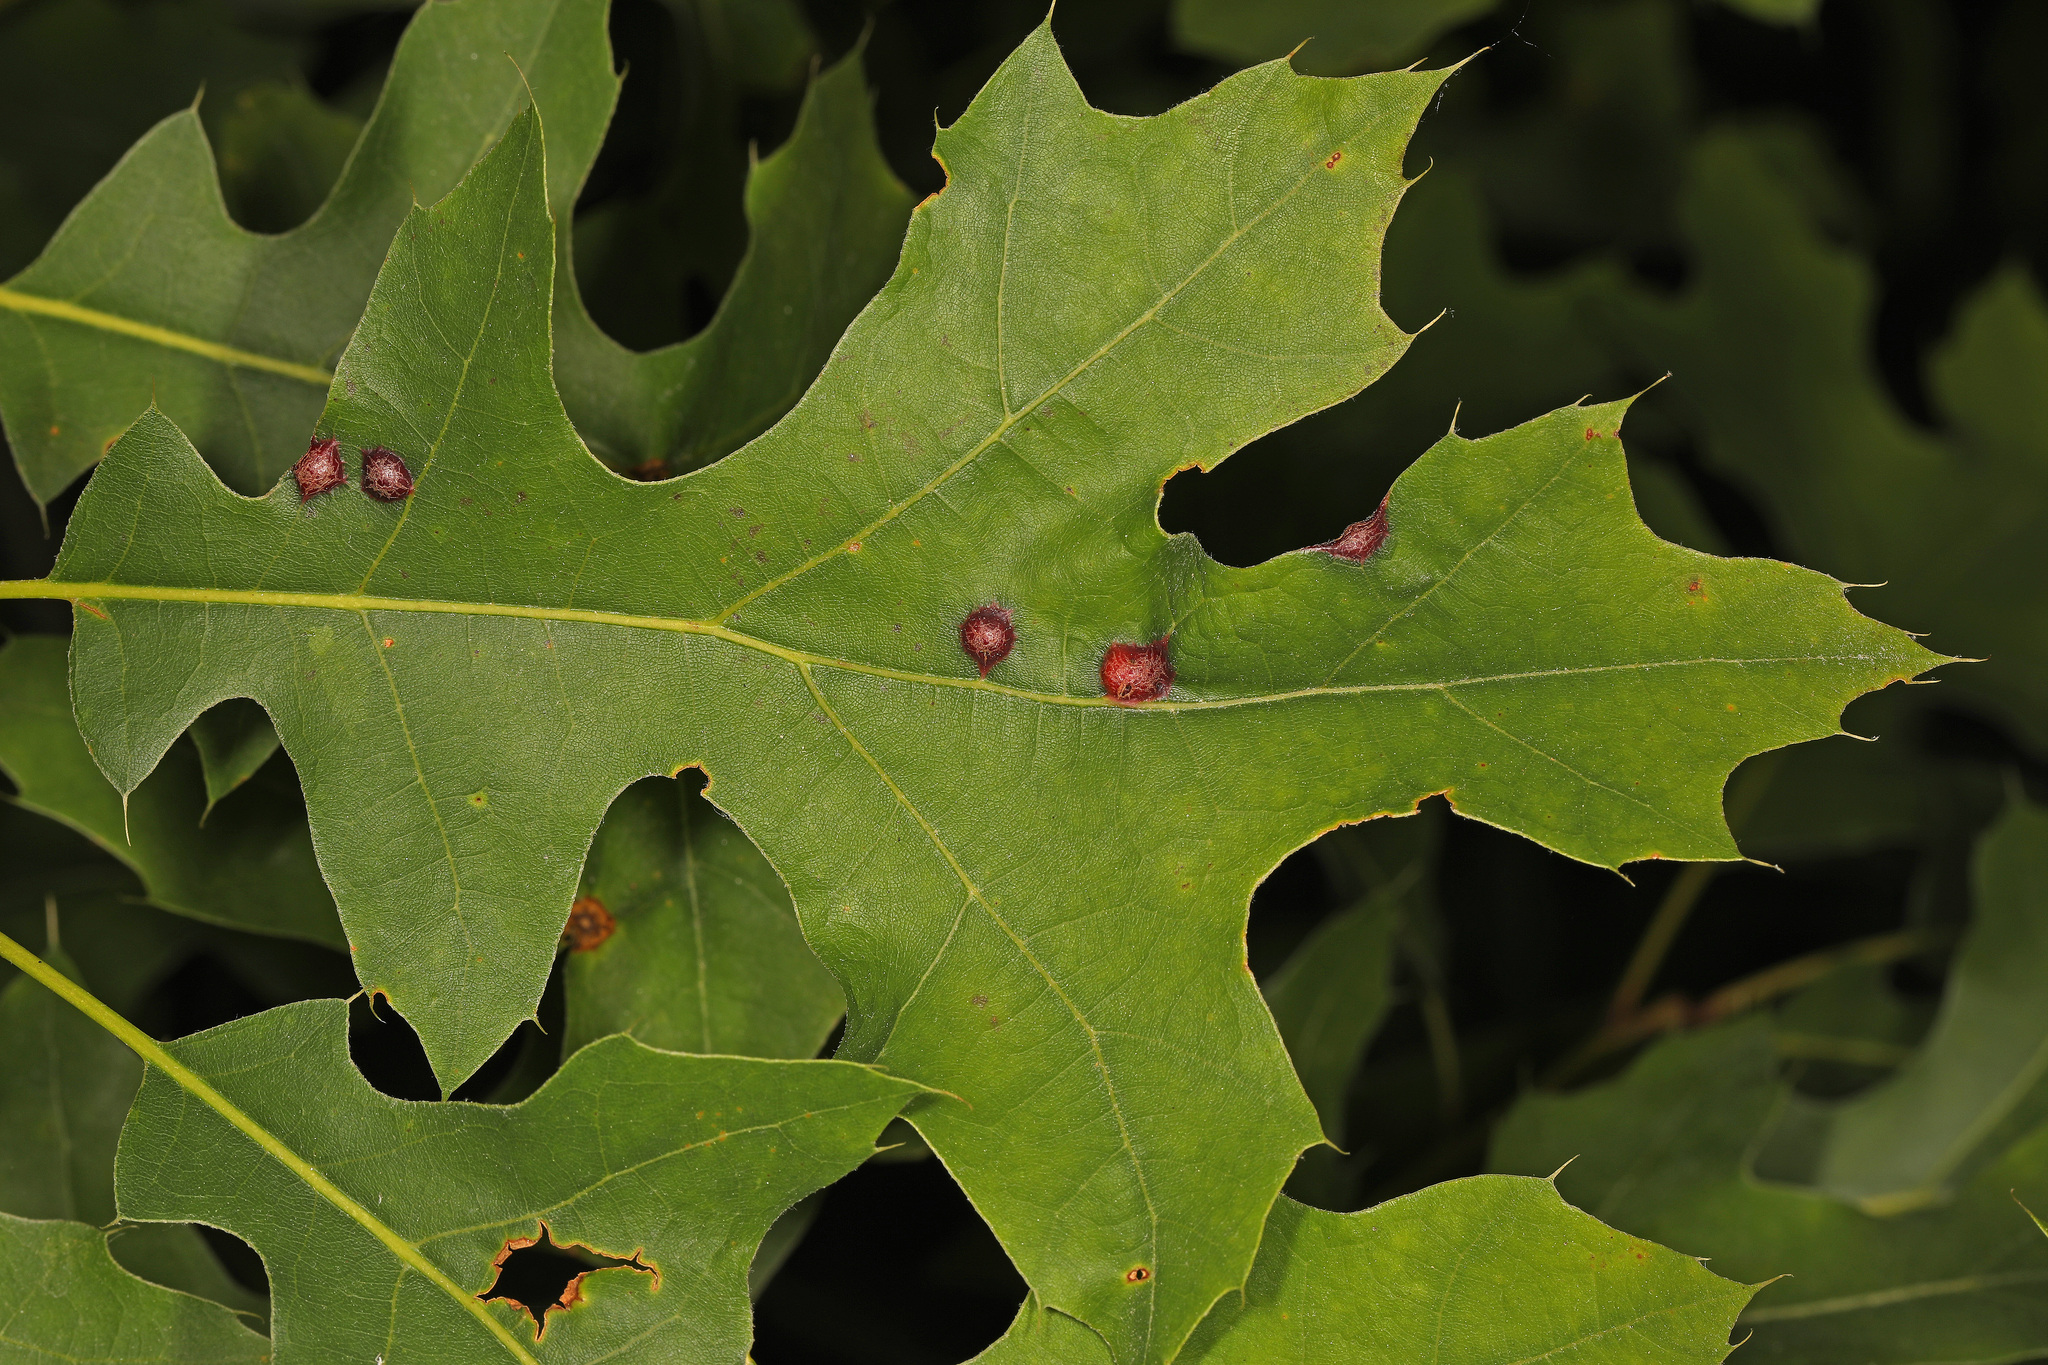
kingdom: Animalia
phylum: Arthropoda
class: Insecta
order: Diptera
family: Cecidomyiidae
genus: Polystepha
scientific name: Polystepha pilulae
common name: Oak leaf gall midge
